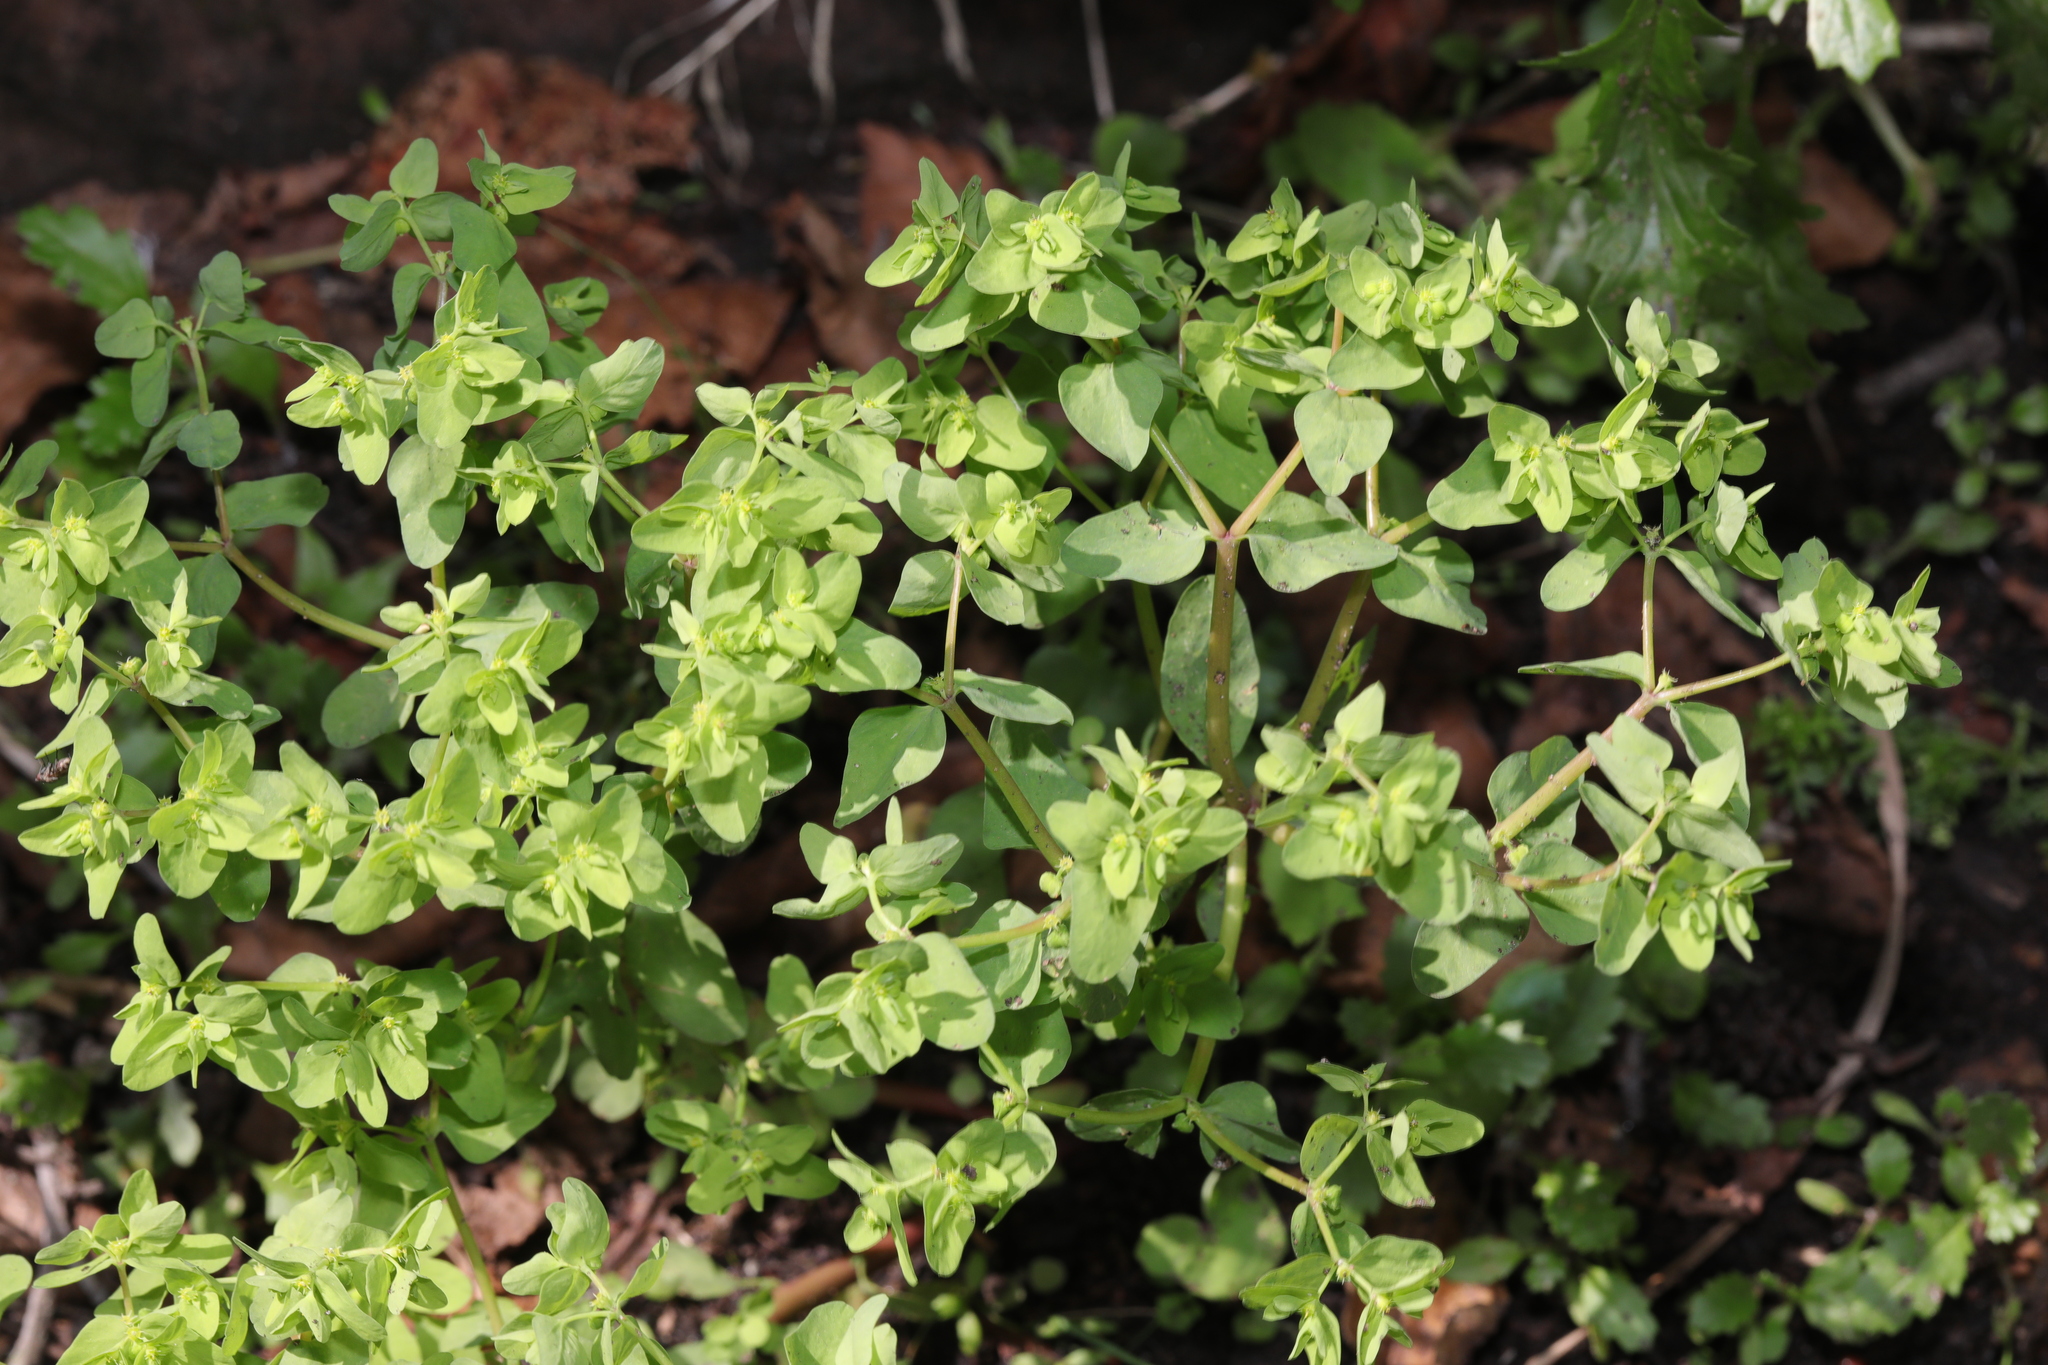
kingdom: Plantae
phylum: Tracheophyta
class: Magnoliopsida
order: Malpighiales
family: Euphorbiaceae
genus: Euphorbia
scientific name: Euphorbia peplus
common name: Petty spurge
